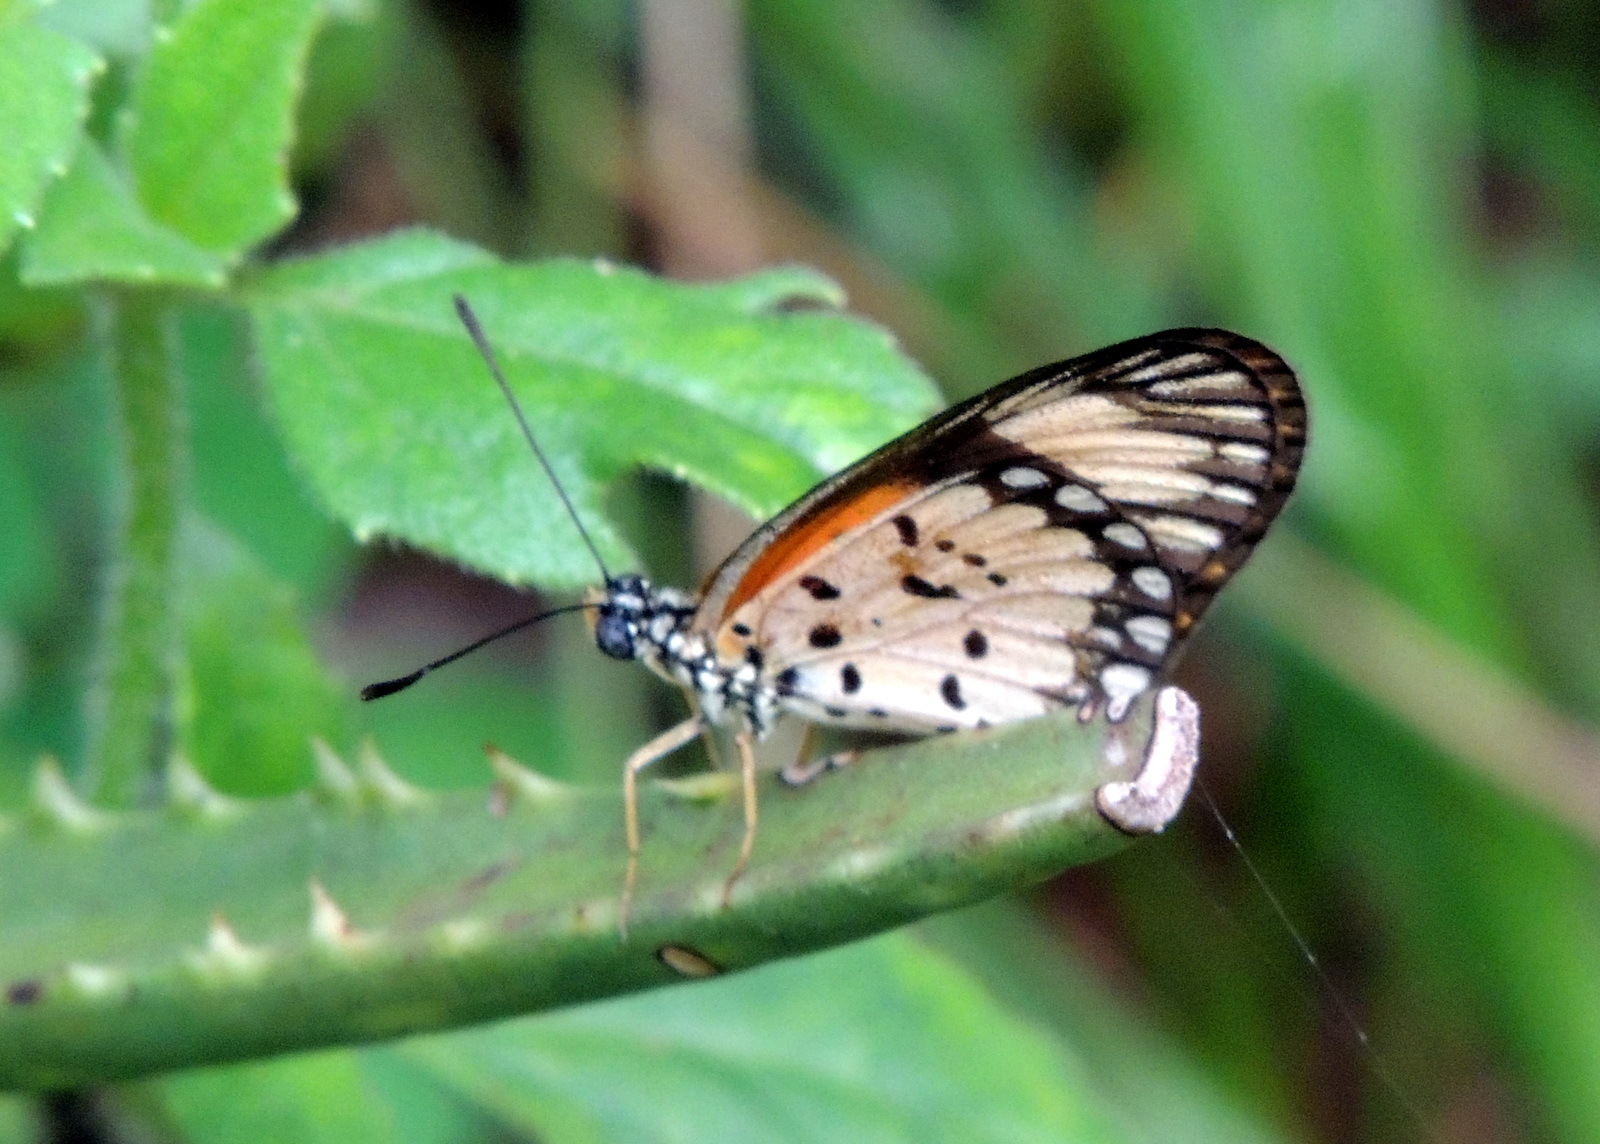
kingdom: Animalia
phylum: Arthropoda
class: Insecta
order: Lepidoptera
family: Nymphalidae
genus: Acraea
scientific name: Acraea Telchinia serena
